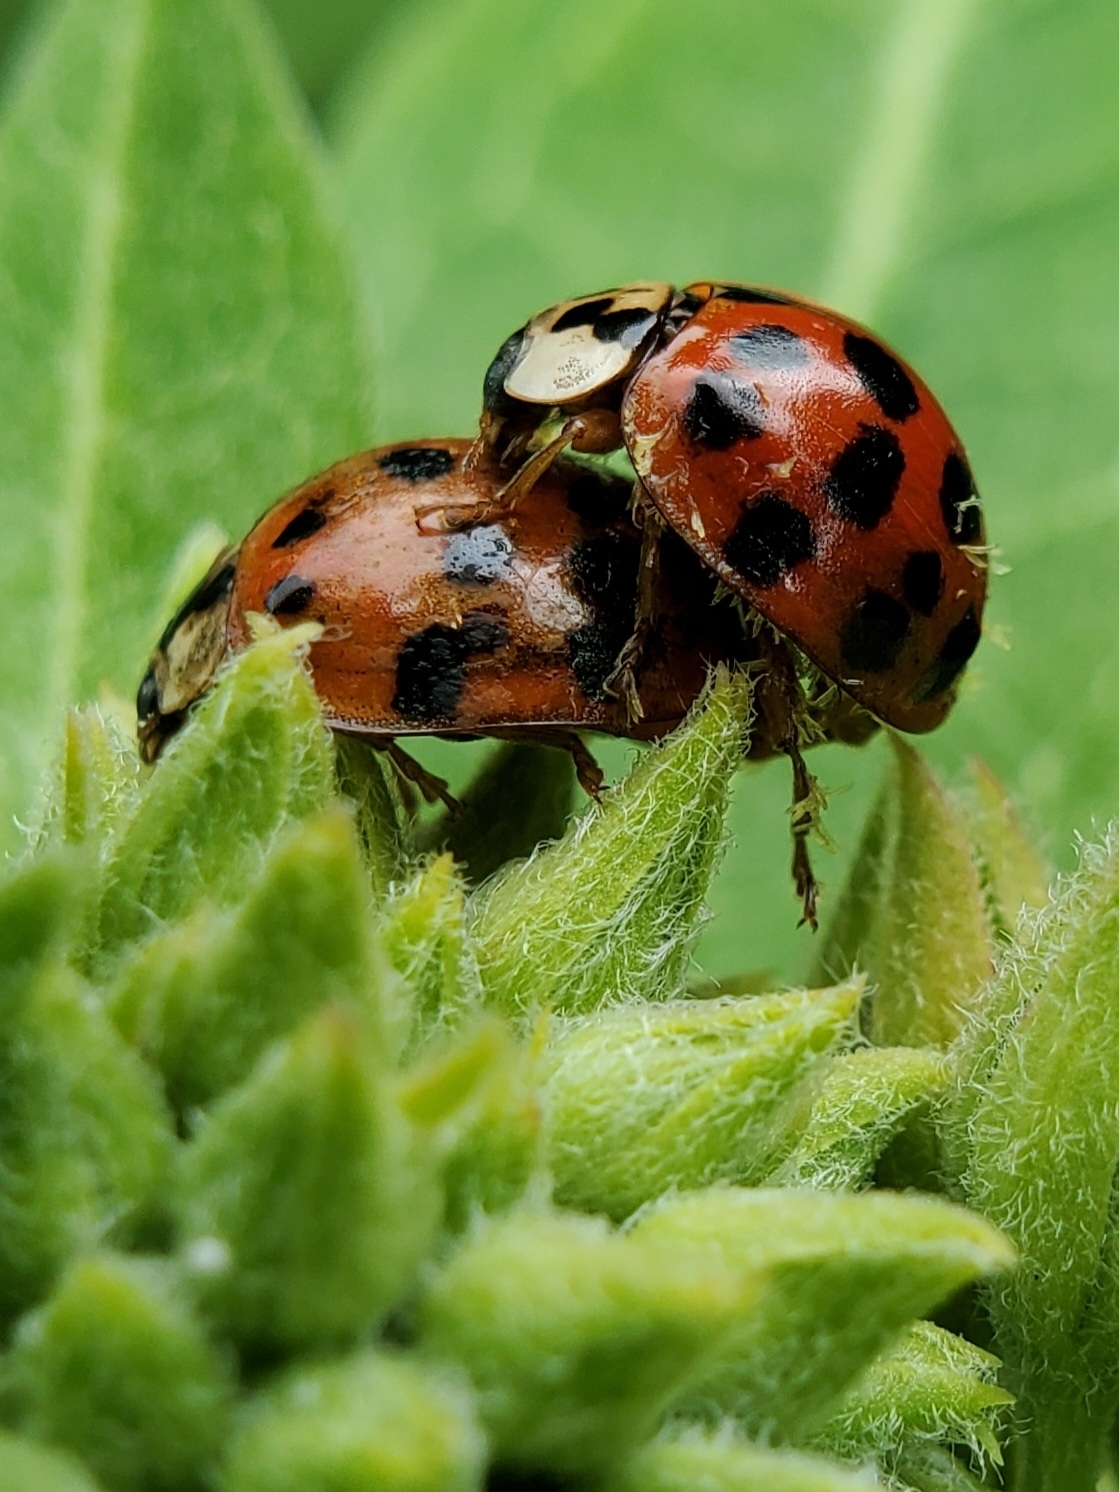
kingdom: Fungi
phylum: Ascomycota
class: Laboulbeniomycetes
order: Laboulbeniales
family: Laboulbeniaceae
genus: Hesperomyces
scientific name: Hesperomyces harmoniae
